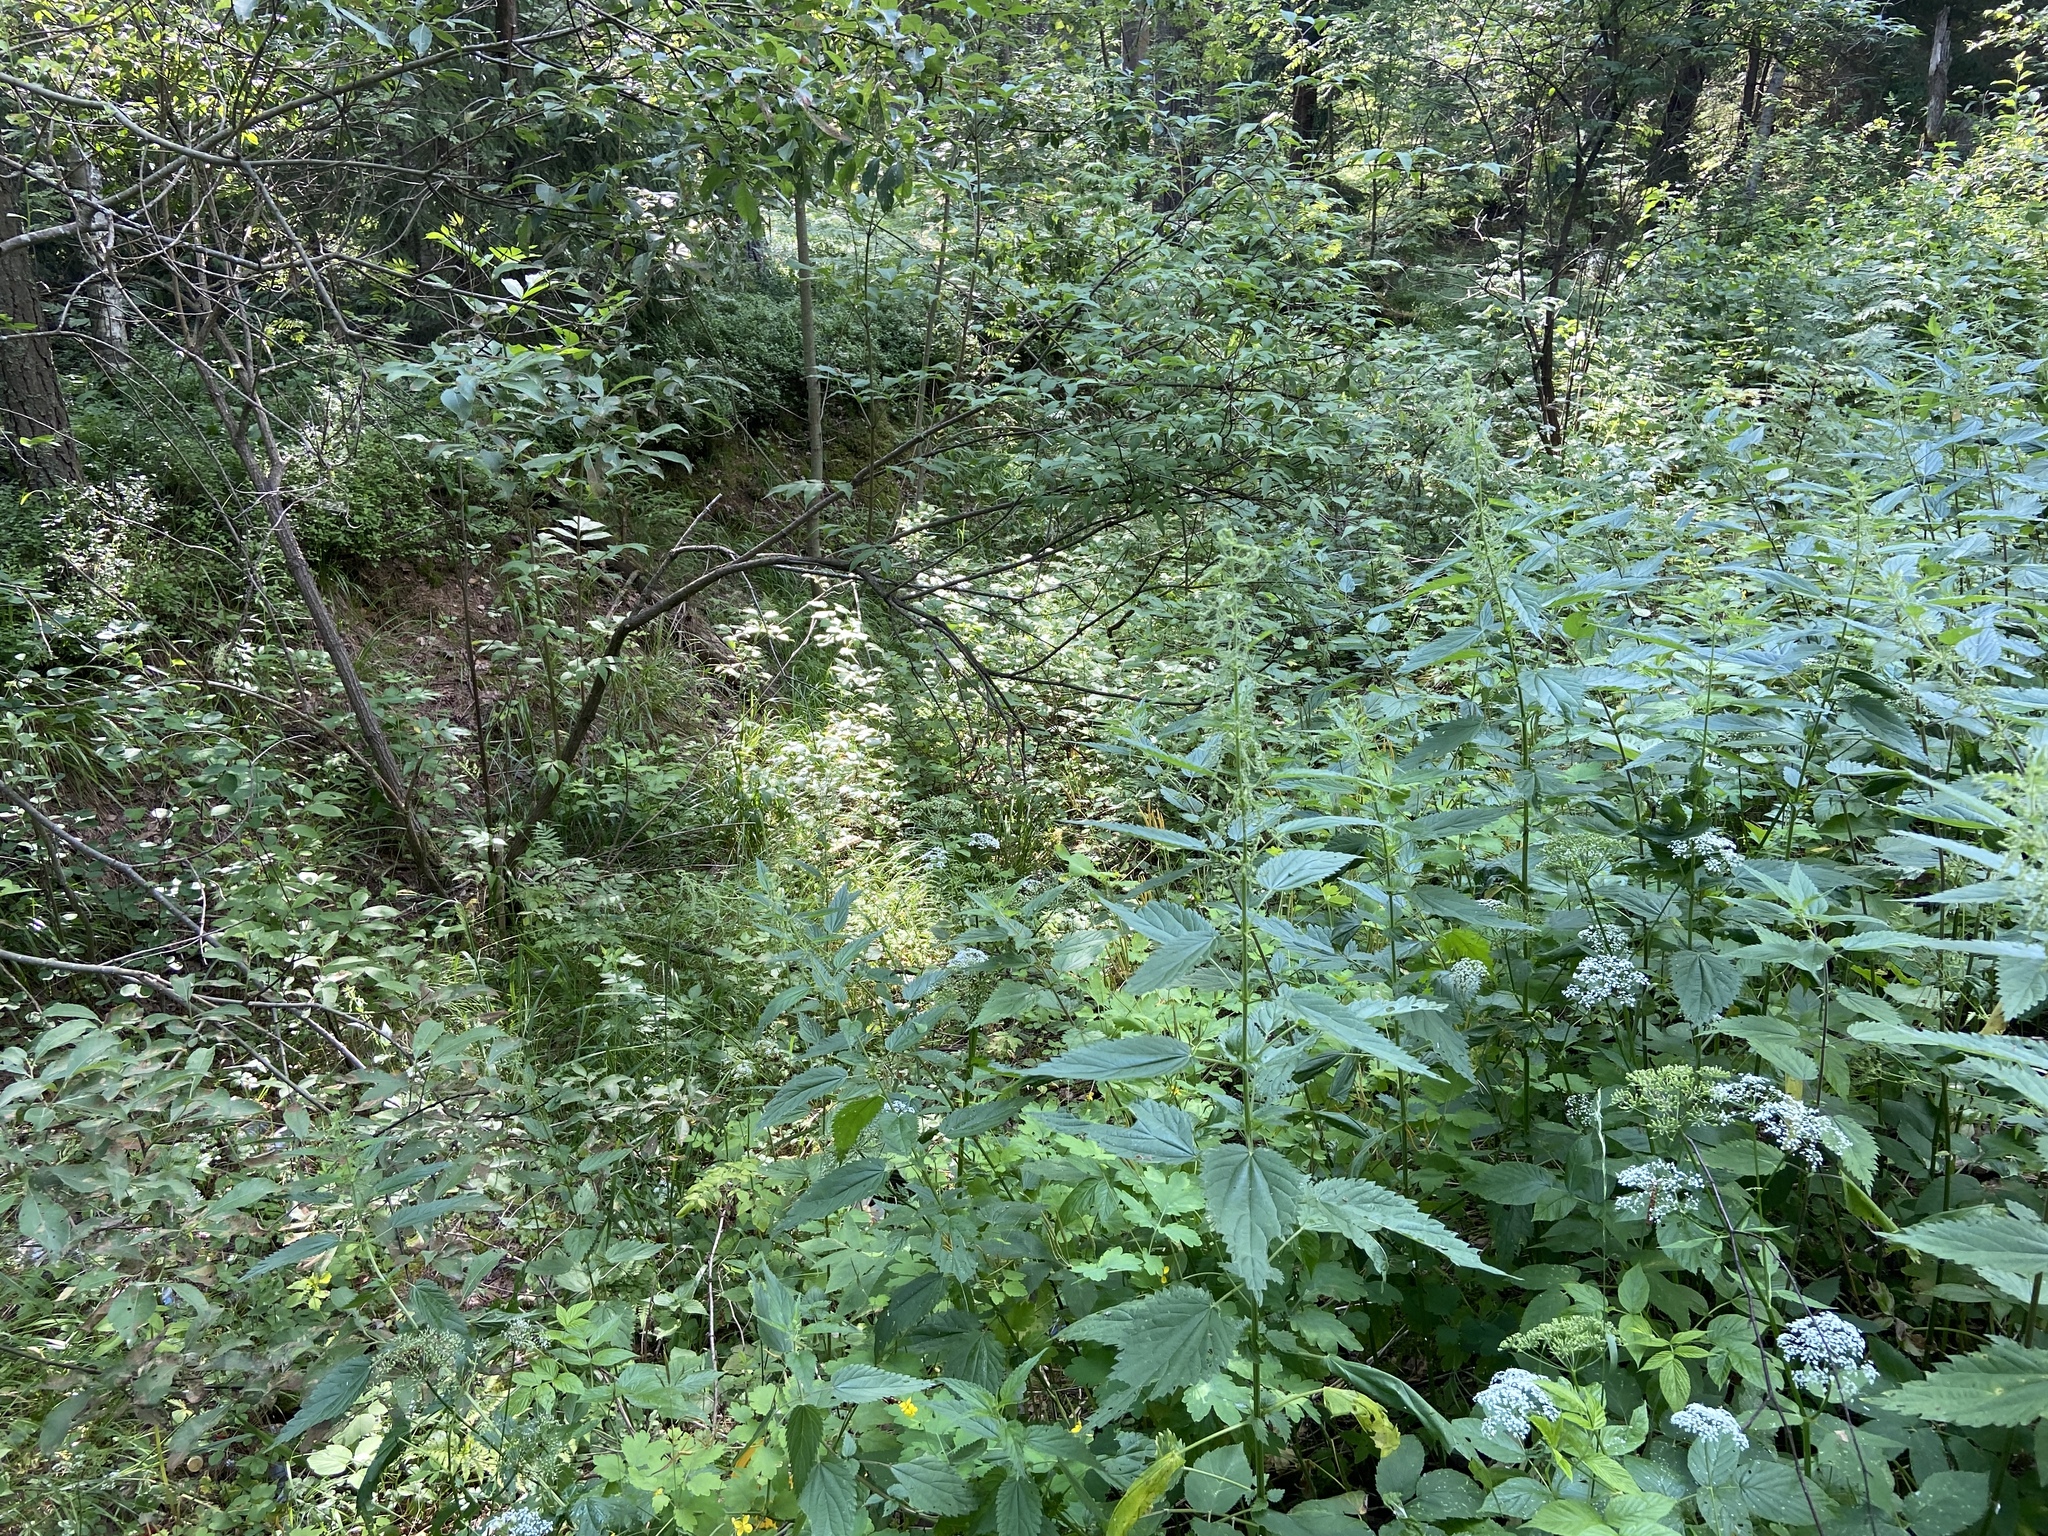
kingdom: Plantae
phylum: Tracheophyta
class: Magnoliopsida
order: Rosales
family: Urticaceae
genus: Urtica
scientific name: Urtica dioica
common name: Common nettle
